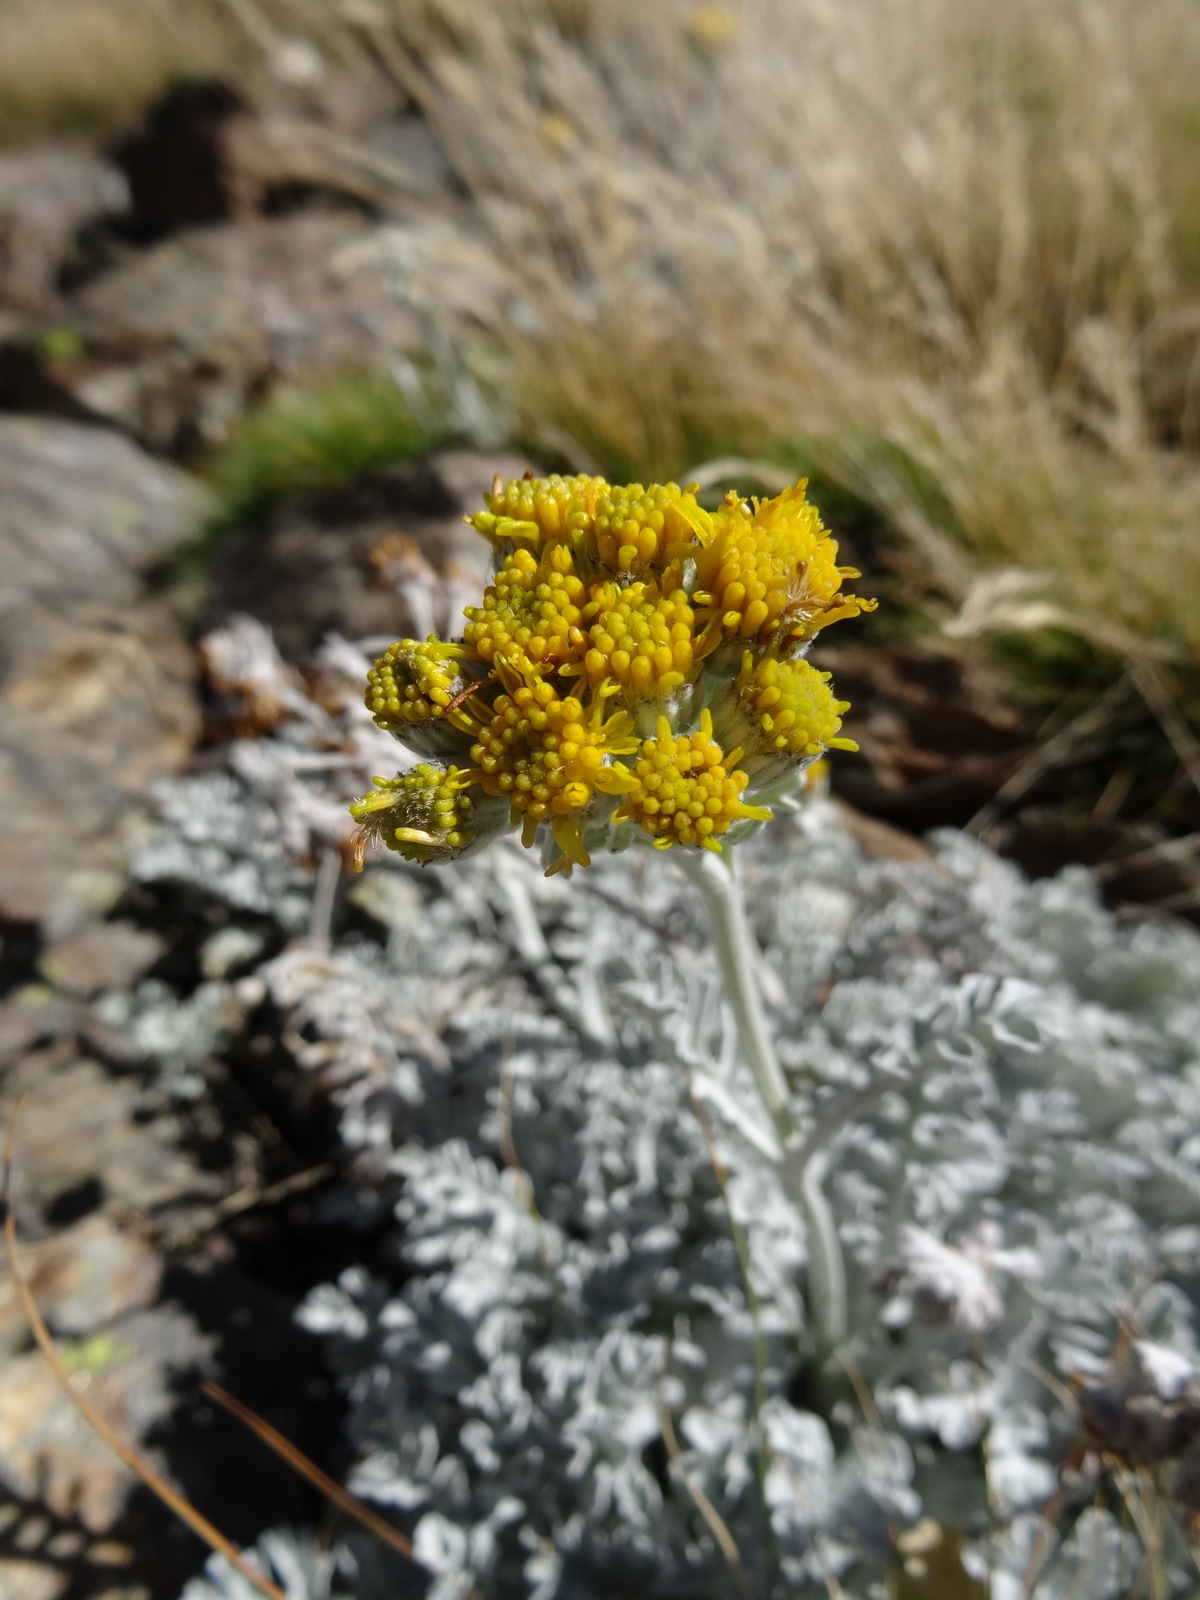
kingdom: Plantae
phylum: Tracheophyta
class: Magnoliopsida
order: Asterales
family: Asteraceae
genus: Jacobaea
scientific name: Jacobaea leucophylla
